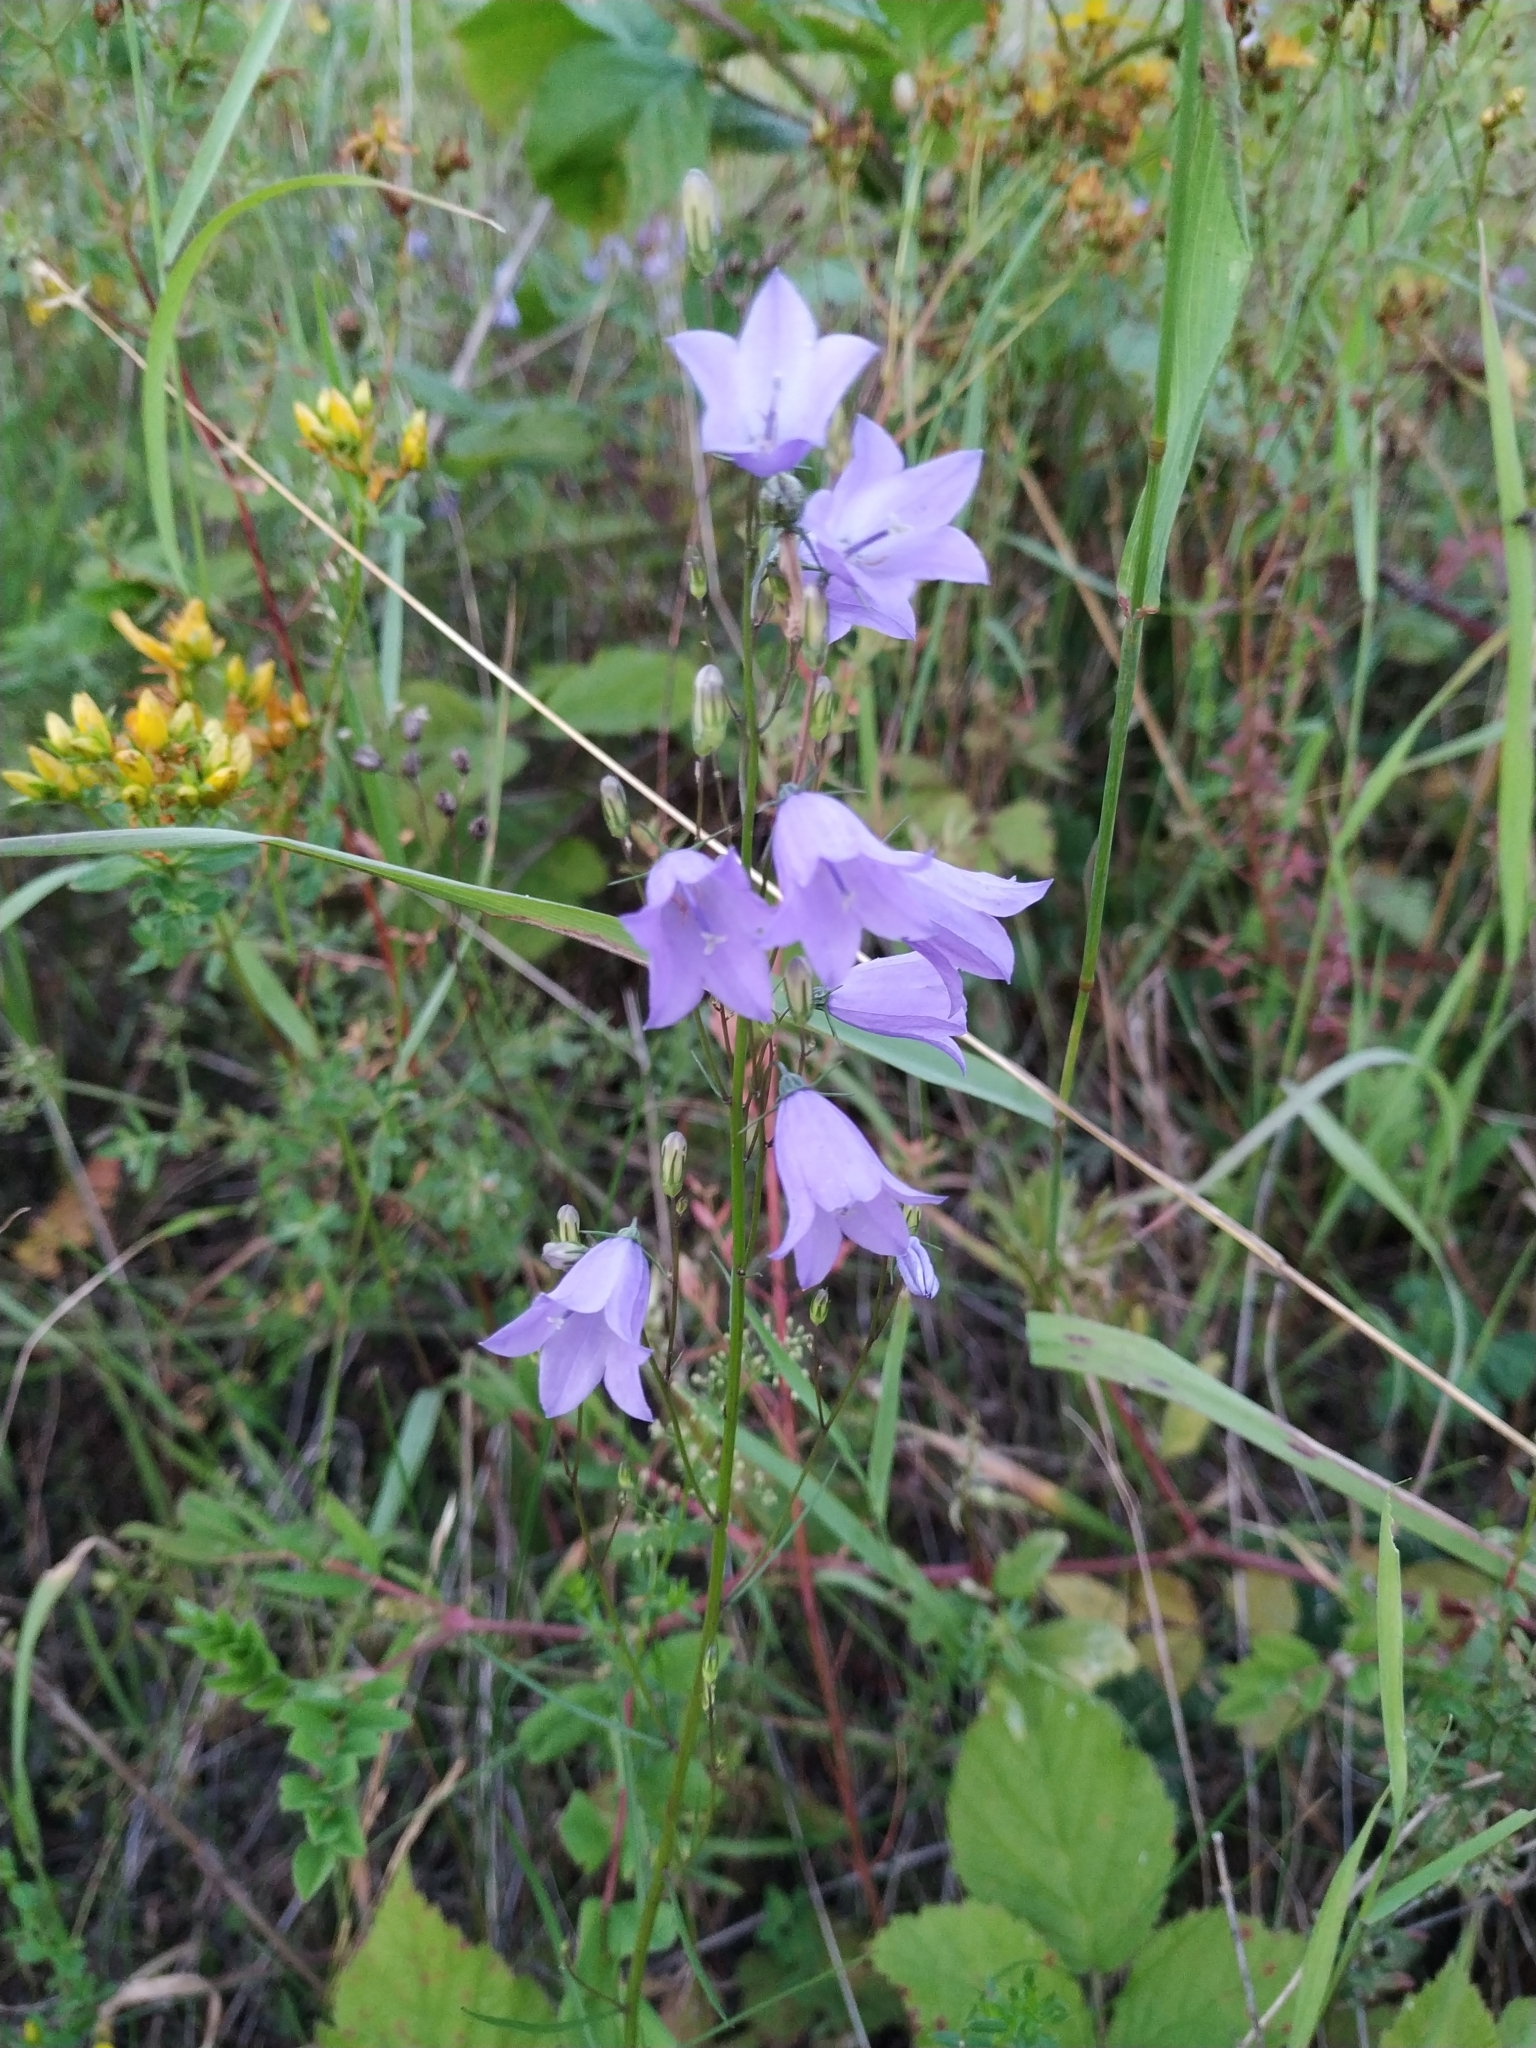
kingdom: Plantae
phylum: Tracheophyta
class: Magnoliopsida
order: Asterales
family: Campanulaceae
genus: Campanula
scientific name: Campanula rapunculus
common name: Rampion bellflower
